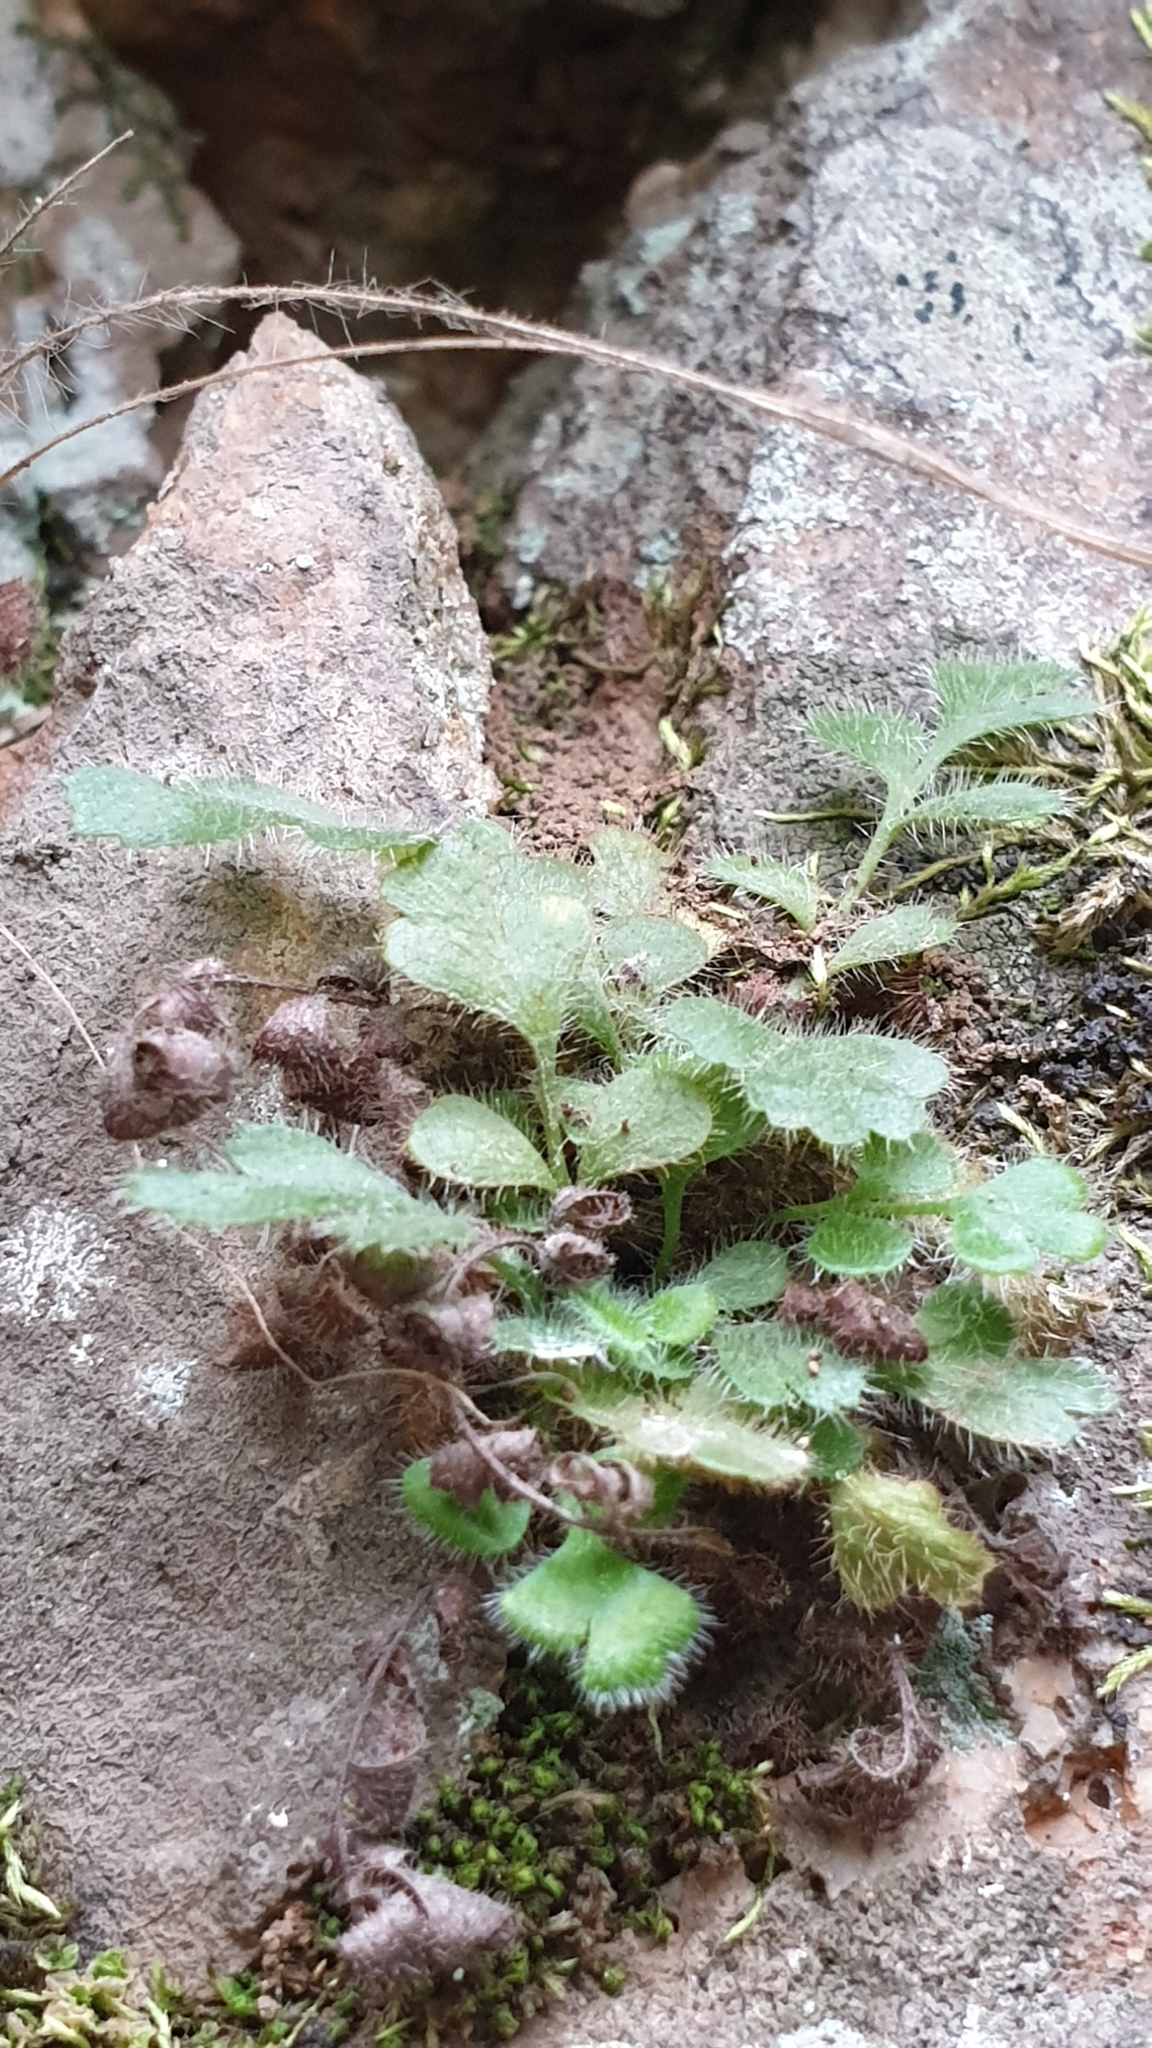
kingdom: Plantae
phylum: Tracheophyta
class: Polypodiopsida
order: Polypodiales
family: Aspleniaceae
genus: Asplenium
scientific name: Asplenium subglandulosum
